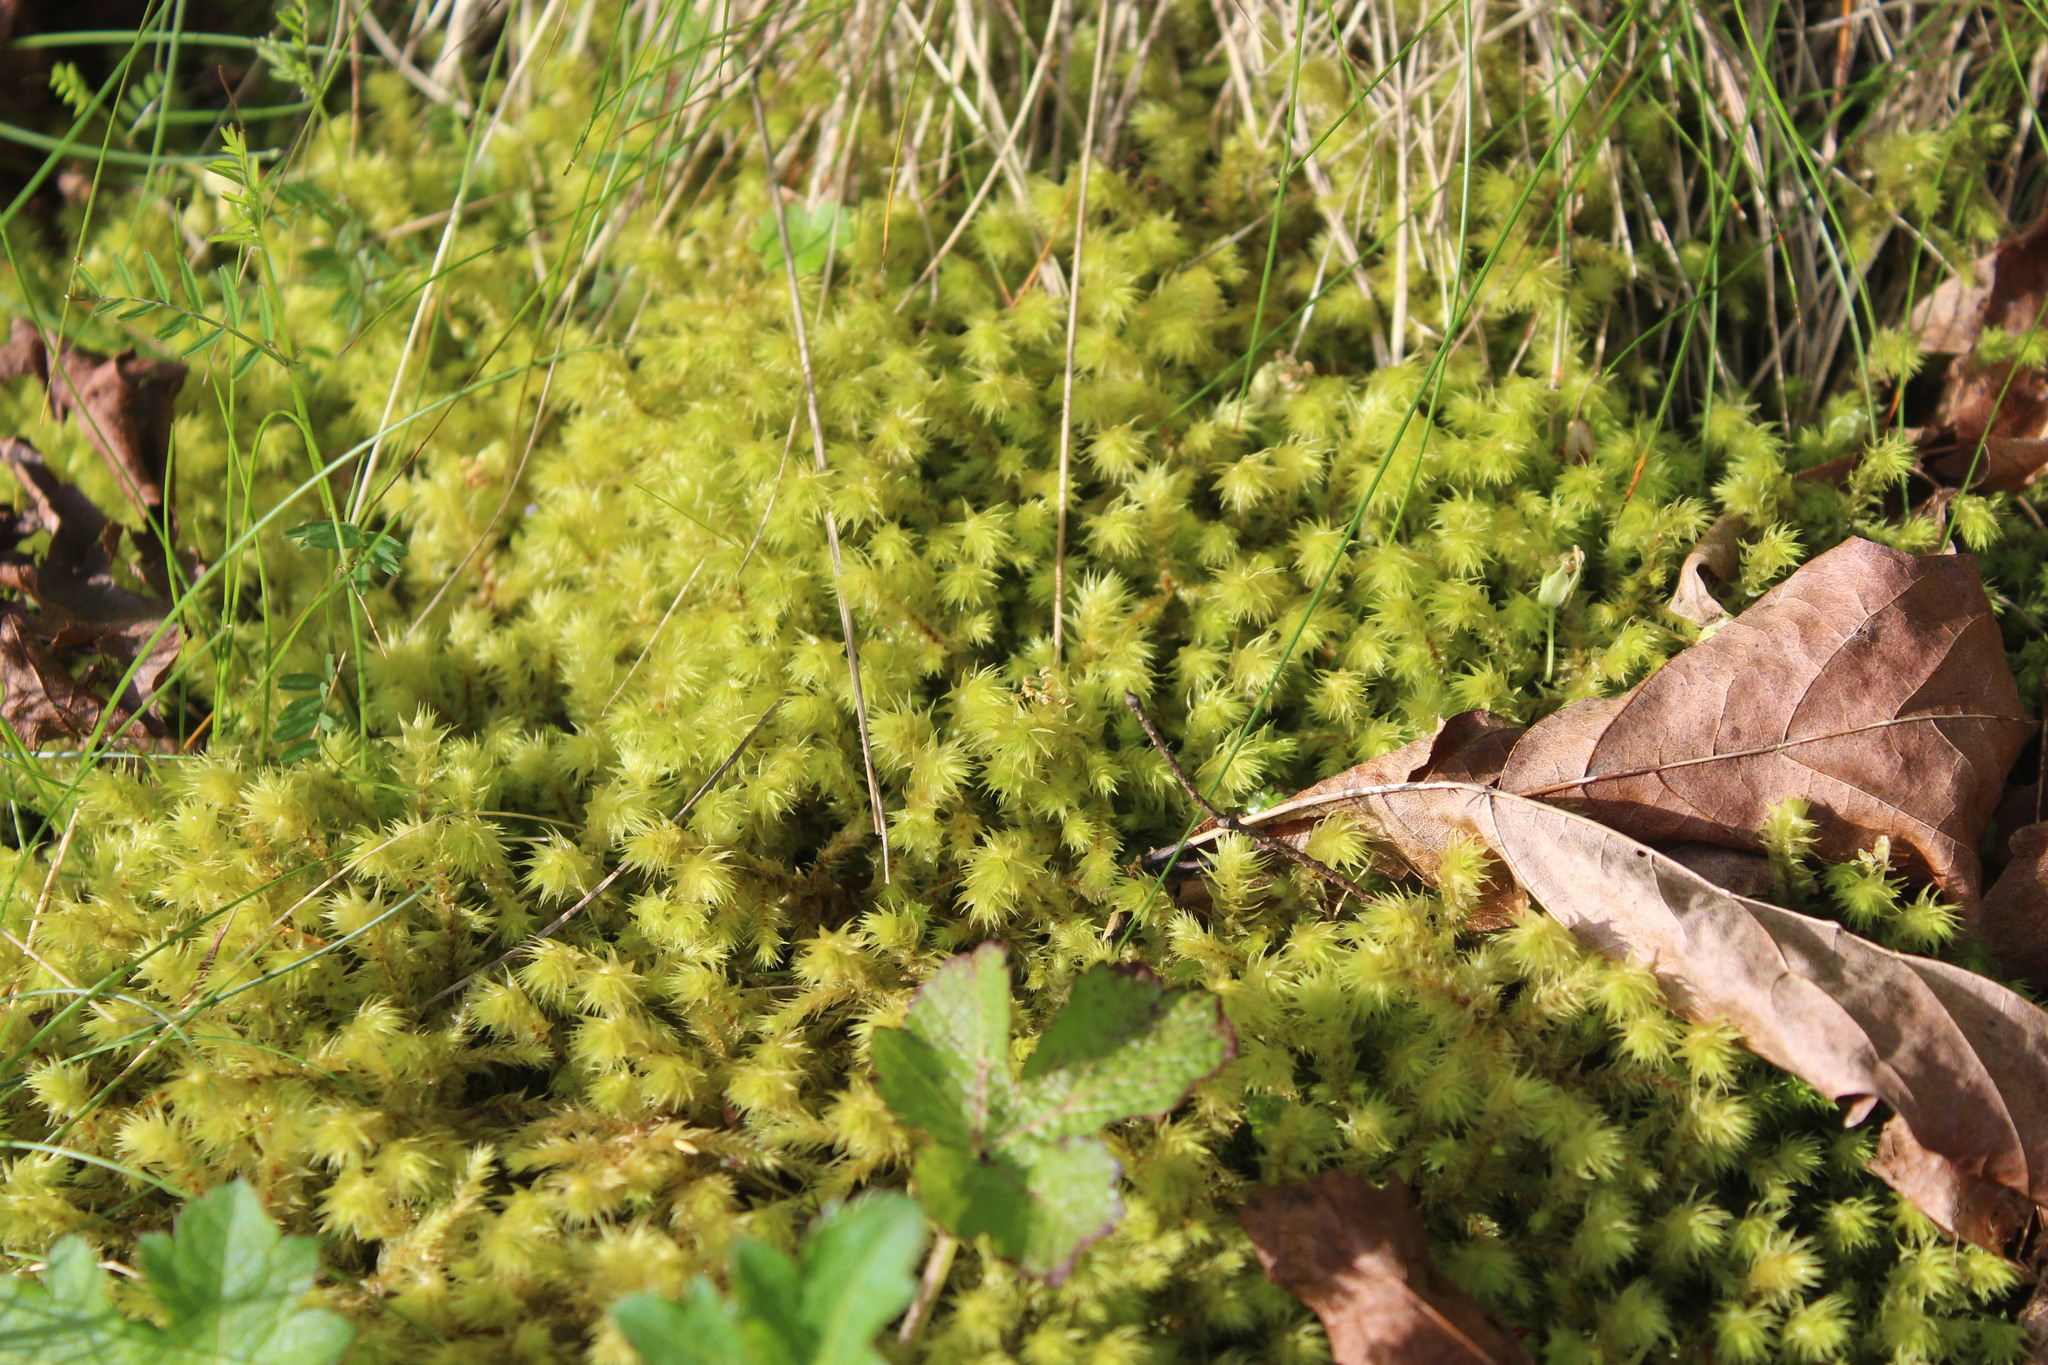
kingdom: Plantae
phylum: Bryophyta
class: Bryopsida
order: Hypnales
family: Hylocomiaceae
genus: Hylocomiadelphus
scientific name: Hylocomiadelphus triquetrus
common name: Rough goose neck moss
